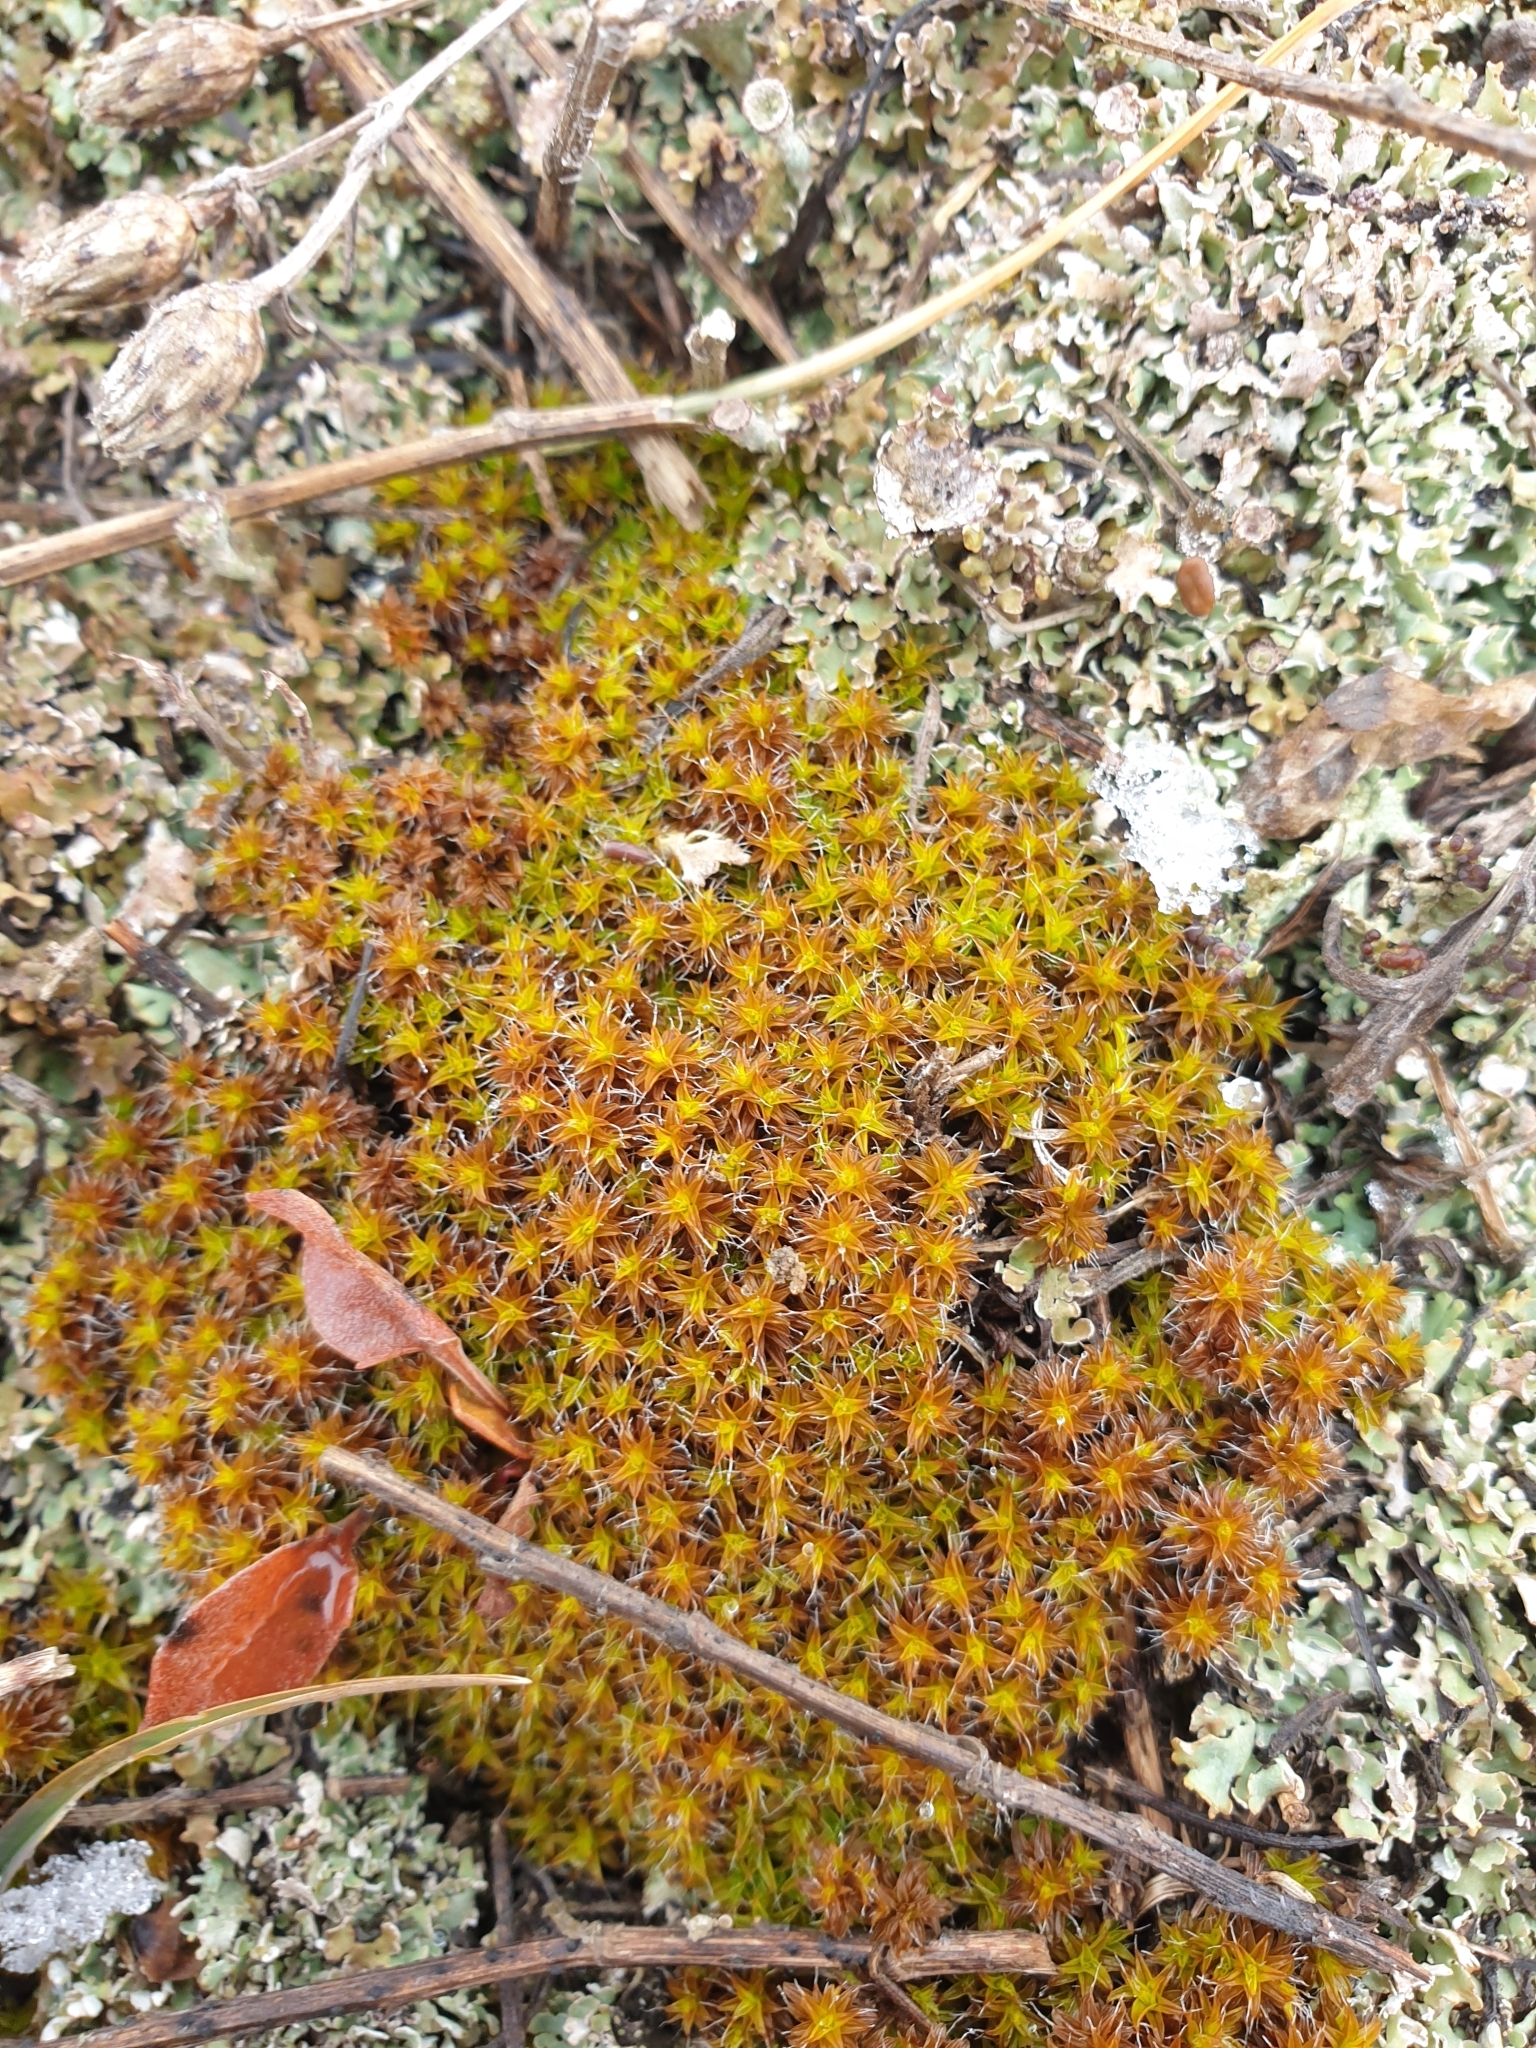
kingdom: Plantae
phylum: Bryophyta
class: Bryopsida
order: Pottiales
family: Pottiaceae
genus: Syntrichia
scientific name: Syntrichia ruralis
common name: Sidewalk screw moss
